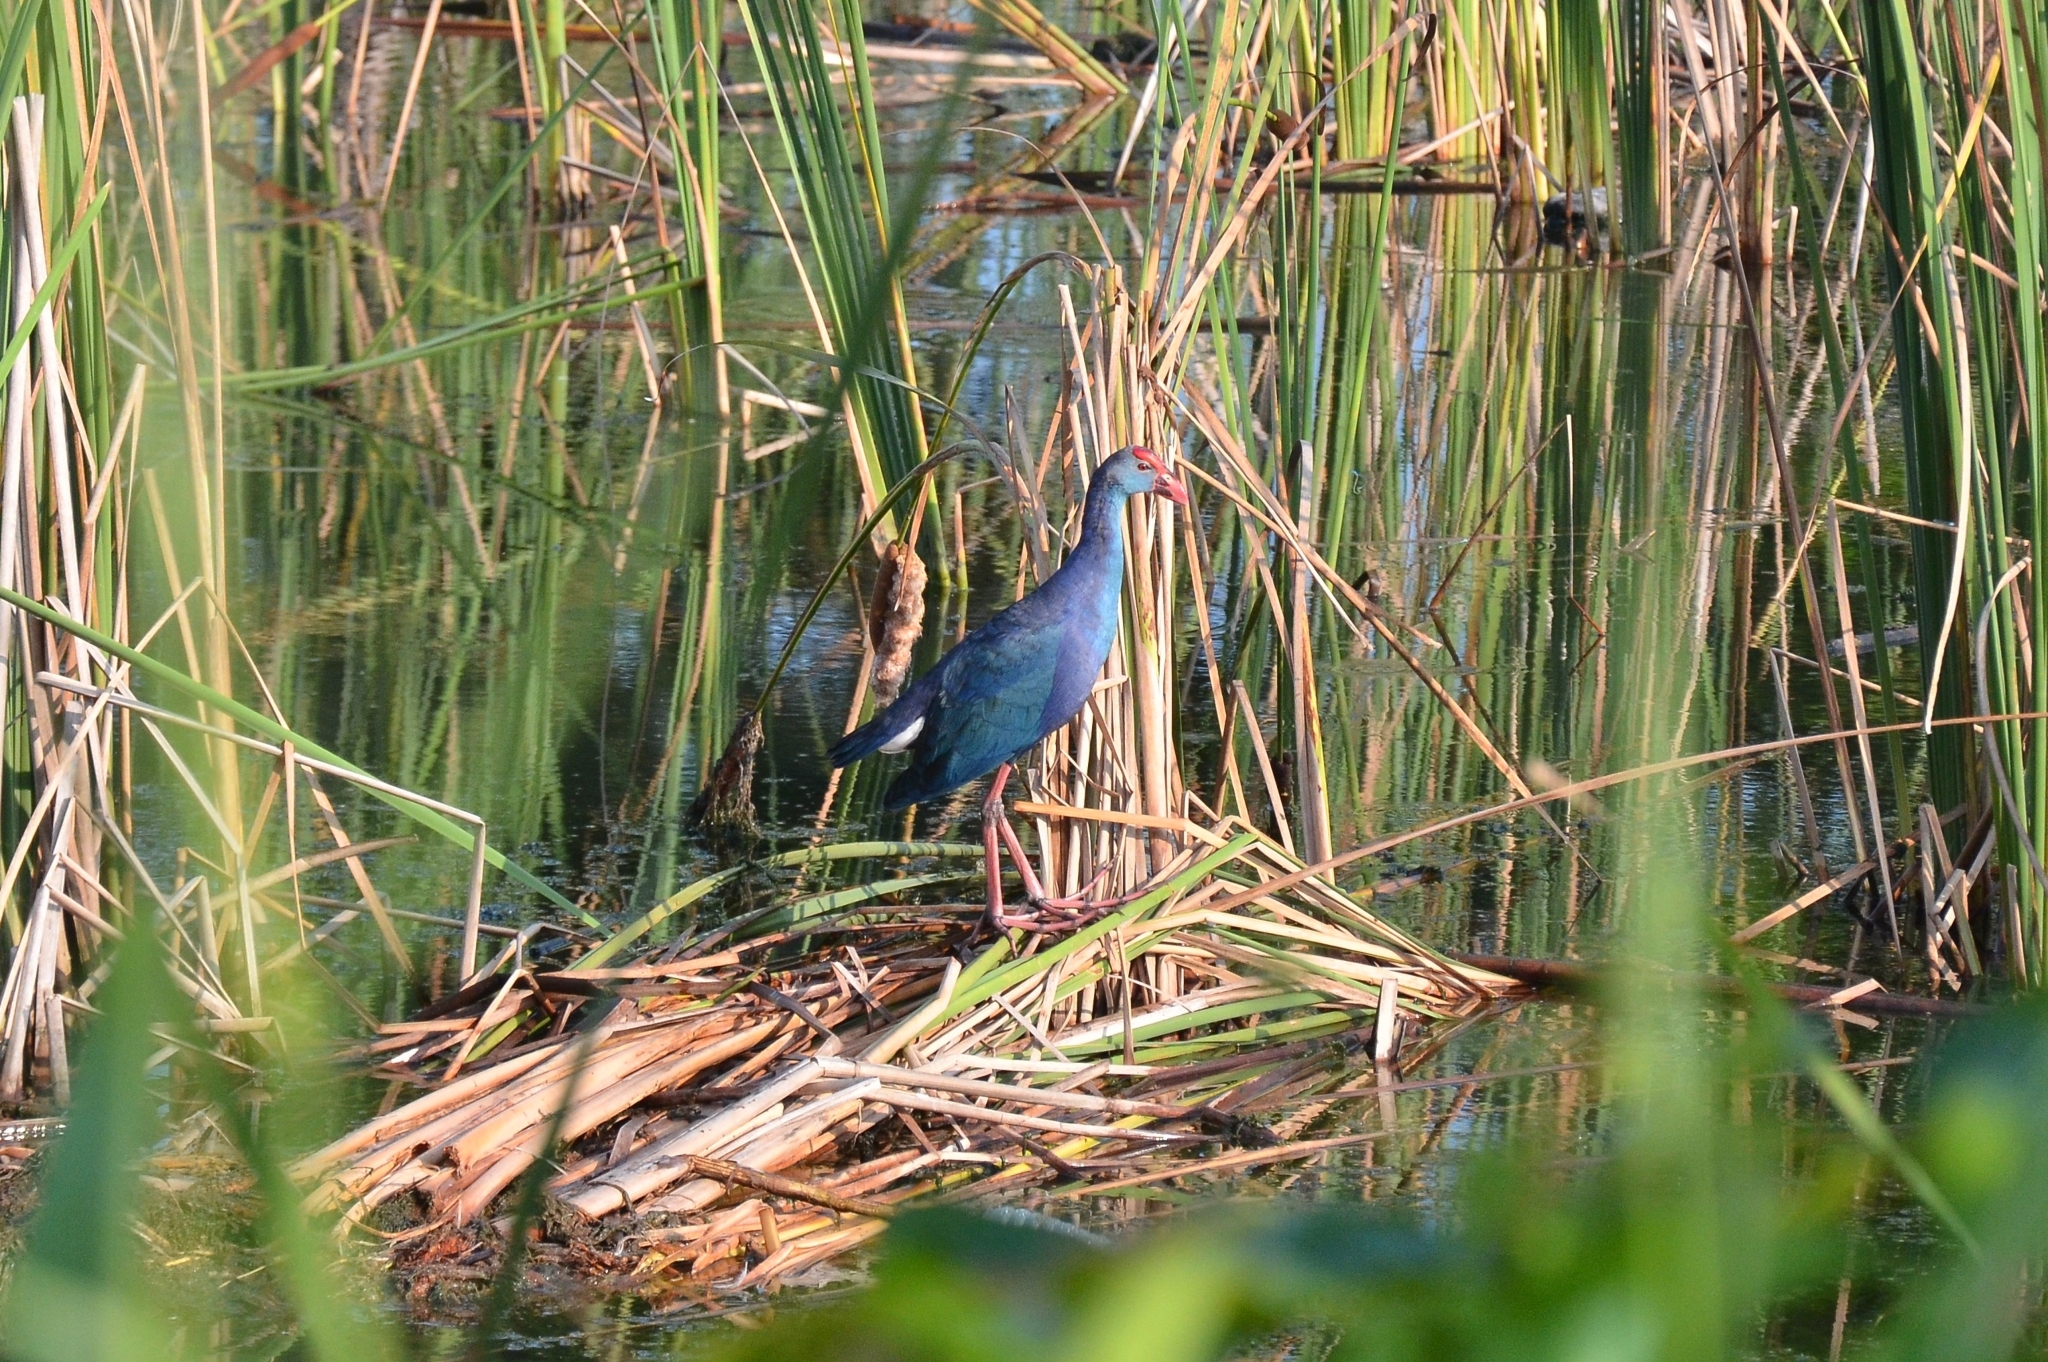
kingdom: Animalia
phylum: Chordata
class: Aves
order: Gruiformes
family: Rallidae
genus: Porphyrio
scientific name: Porphyrio porphyrio
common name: Purple swamphen
